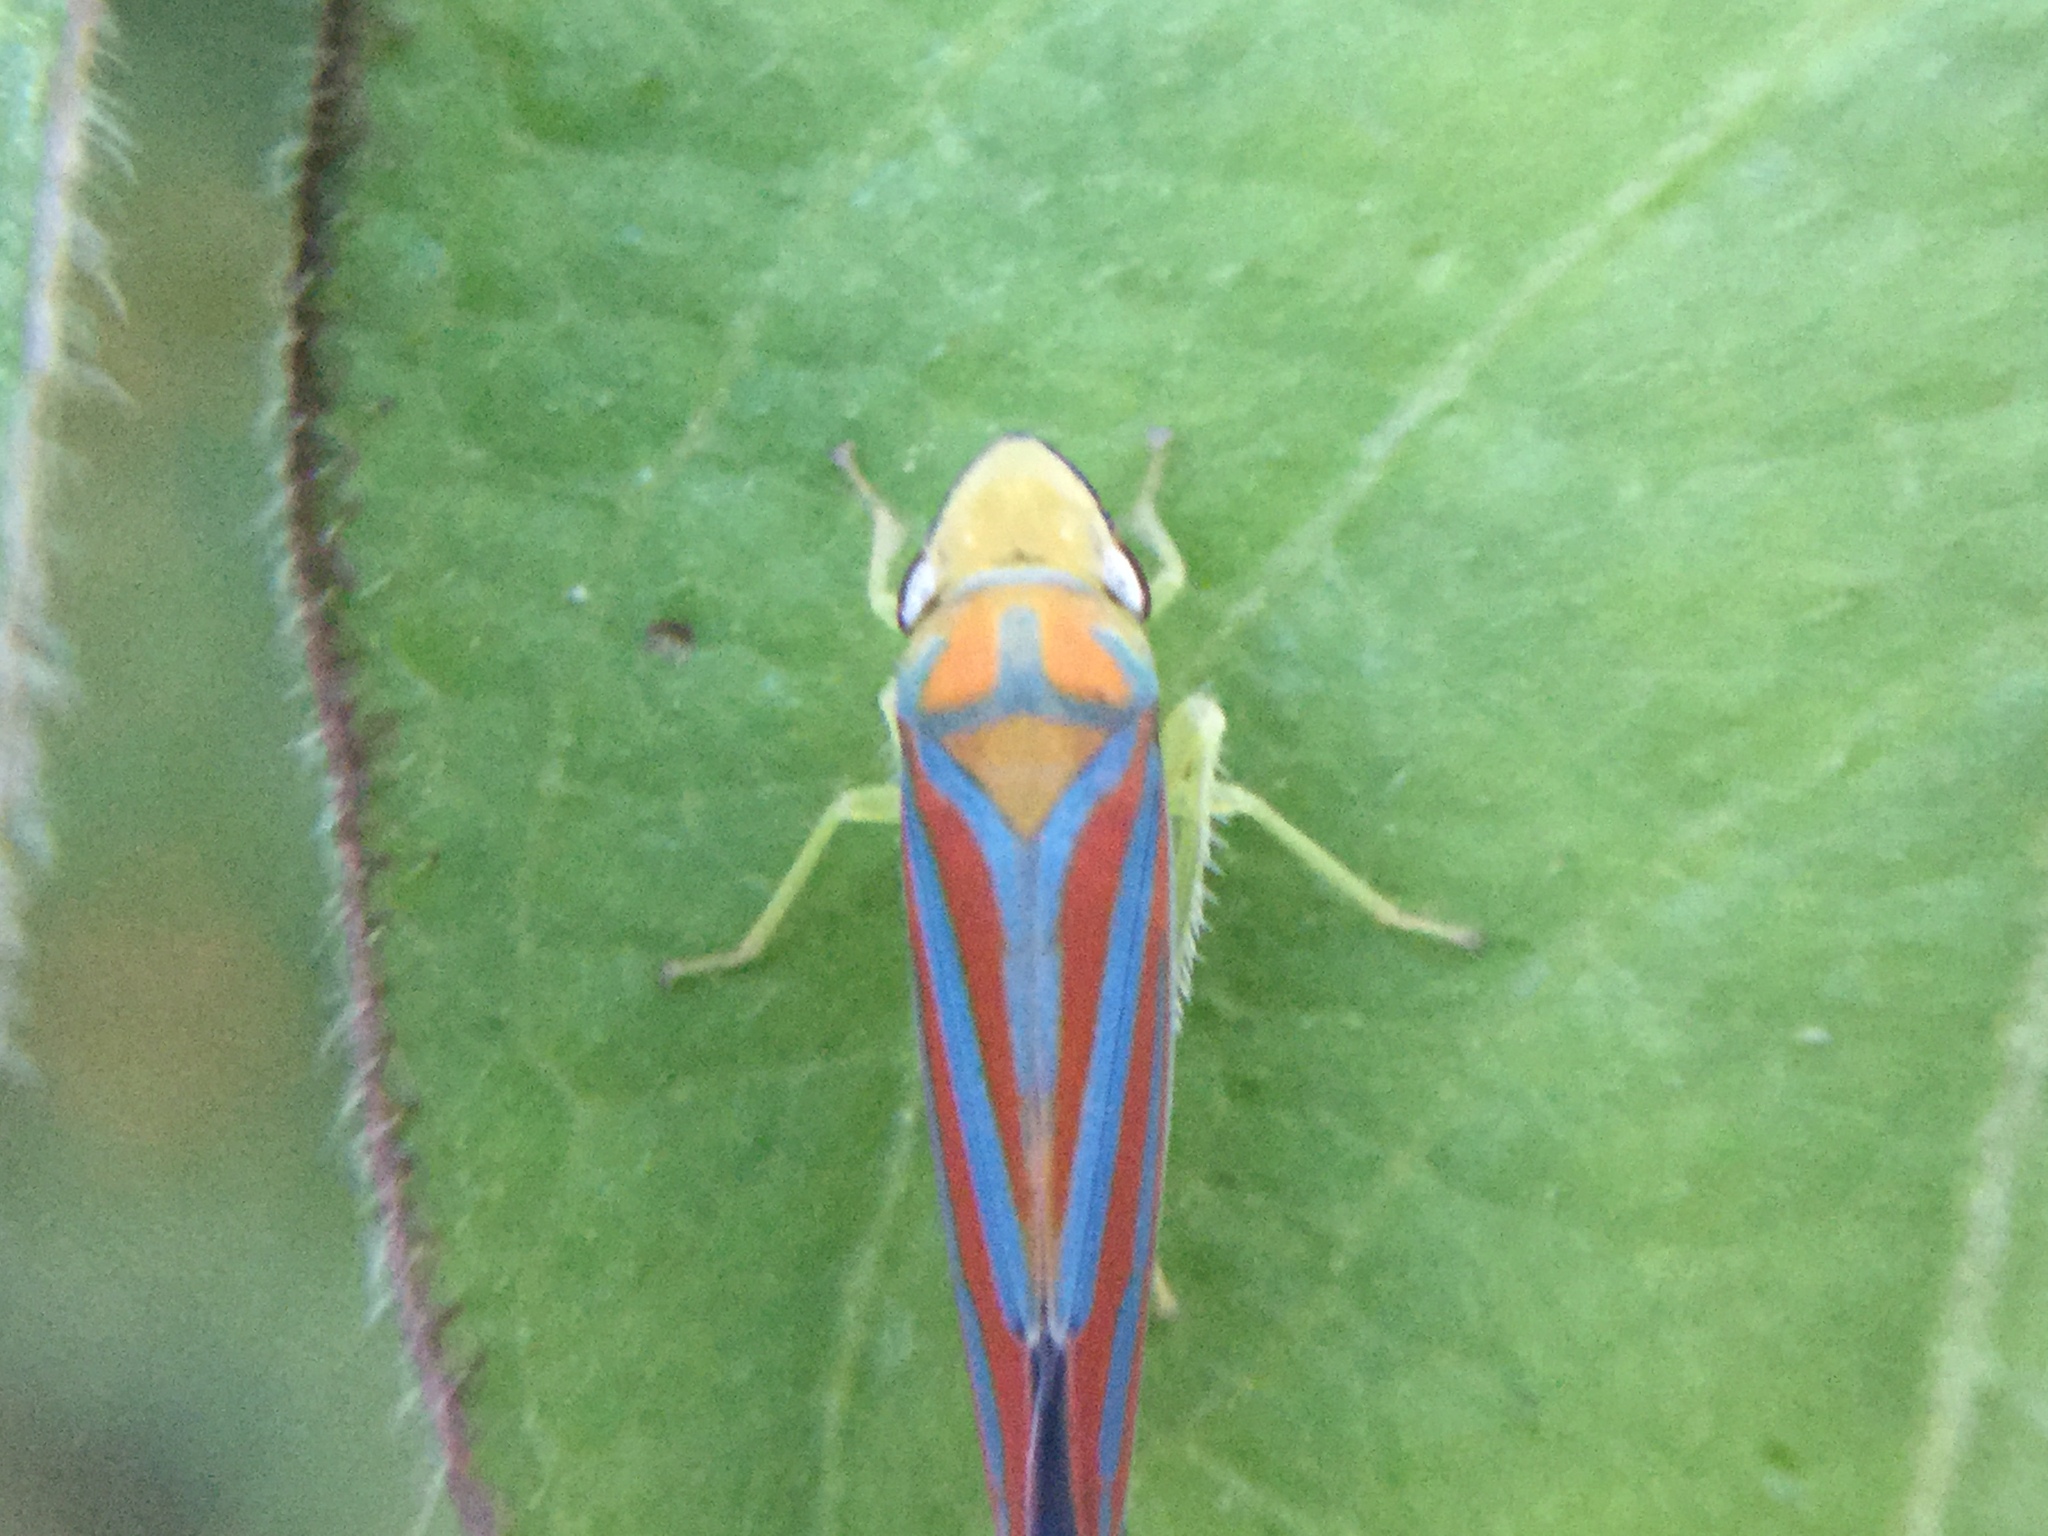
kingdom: Animalia
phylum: Arthropoda
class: Insecta
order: Hemiptera
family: Cicadellidae
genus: Graphocephala
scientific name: Graphocephala coccinea
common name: Candy-striped leafhopper
